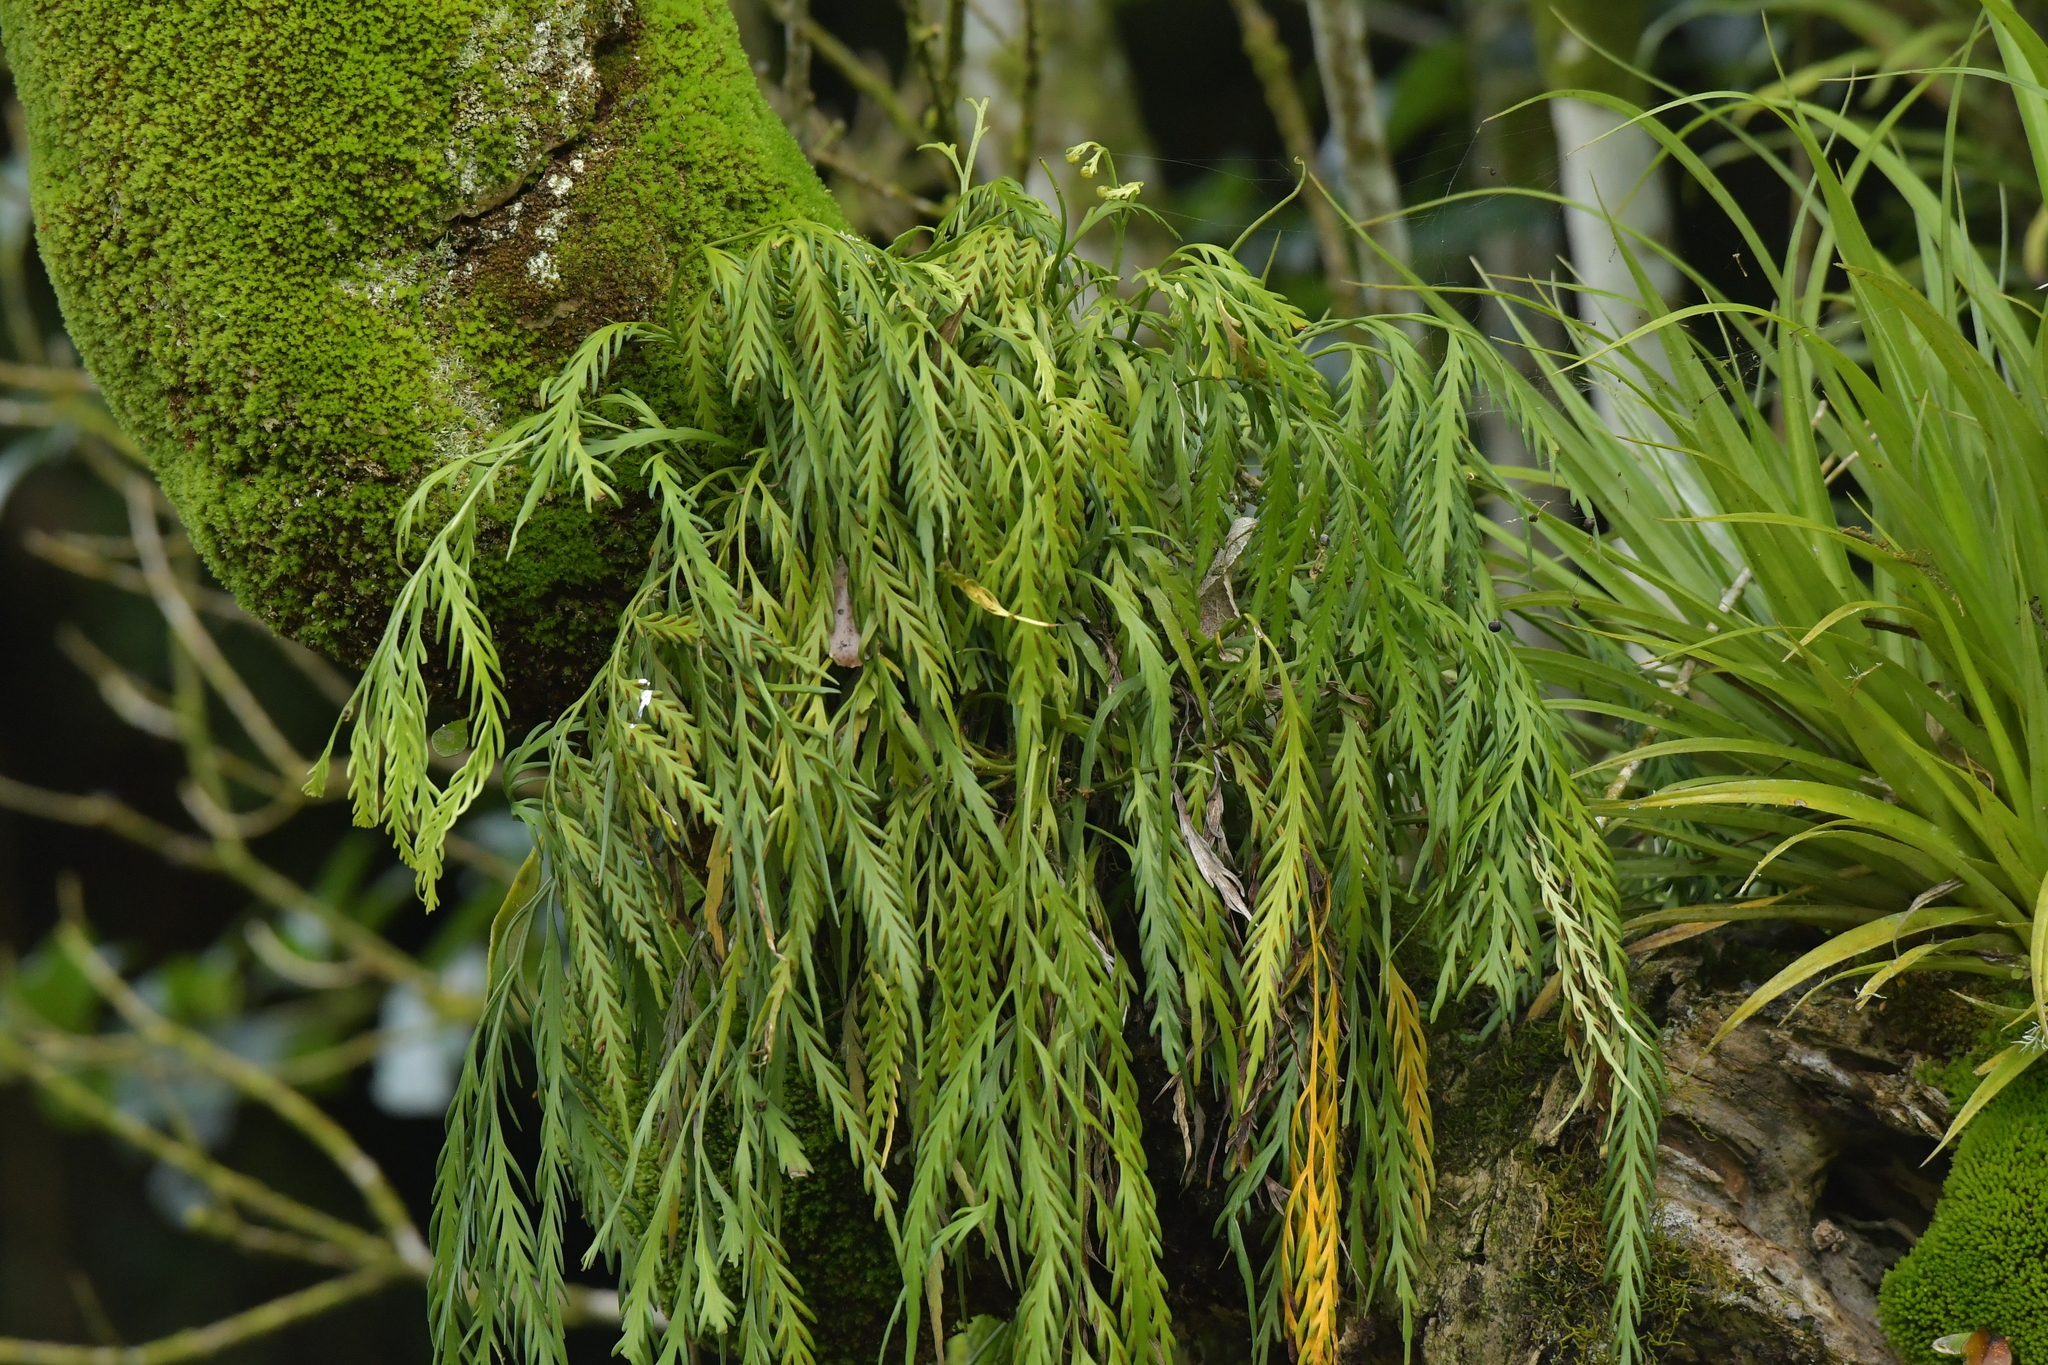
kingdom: Plantae
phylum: Tracheophyta
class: Polypodiopsida
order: Polypodiales
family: Aspleniaceae
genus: Asplenium
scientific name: Asplenium flaccidum
